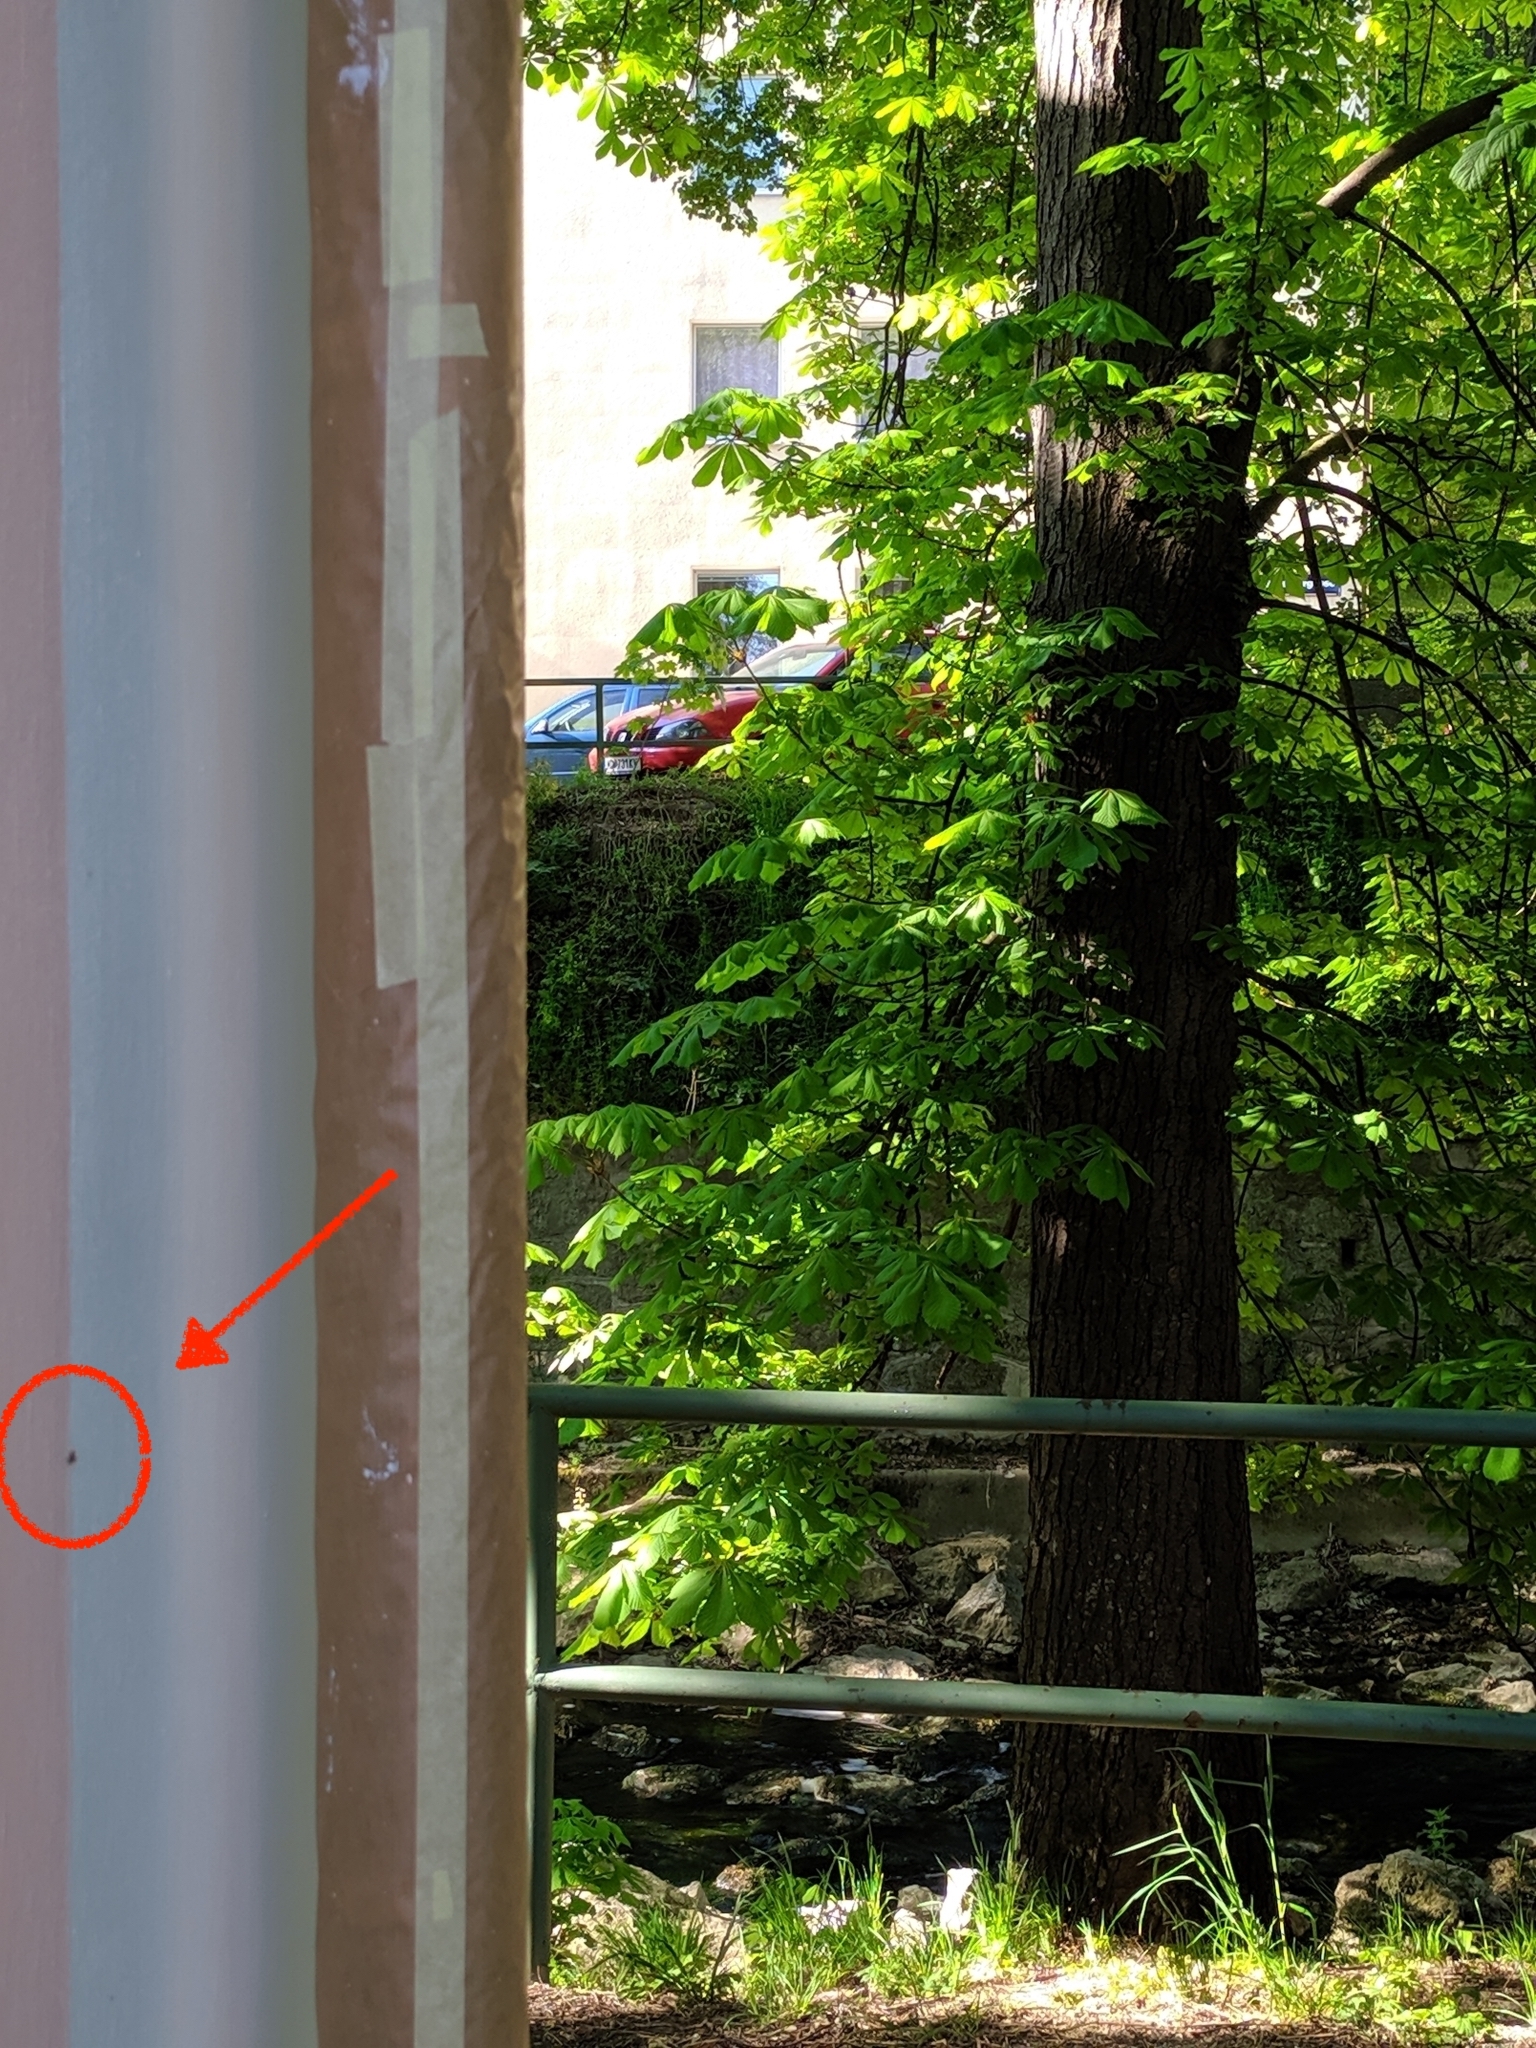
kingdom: Animalia
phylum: Arthropoda
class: Insecta
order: Lepidoptera
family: Gracillariidae
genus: Cameraria
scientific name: Cameraria ohridella
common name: Horse-chestnut leaf-miner
